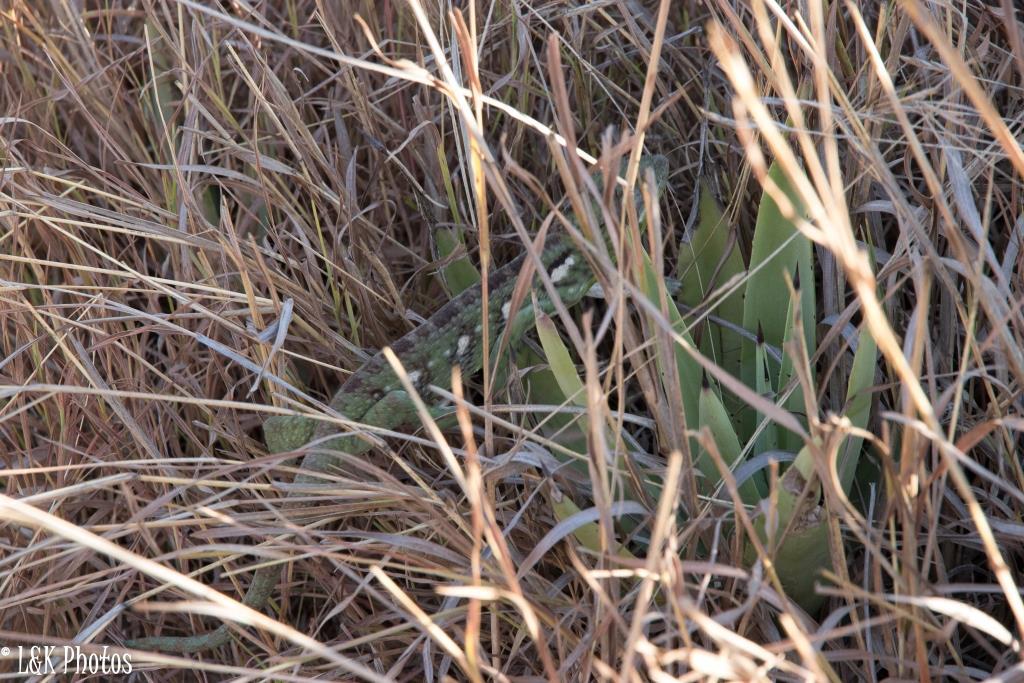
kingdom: Animalia
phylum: Chordata
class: Squamata
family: Chamaeleonidae
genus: Furcifer
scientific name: Furcifer oustaleti
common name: Oustalet's chameleon
